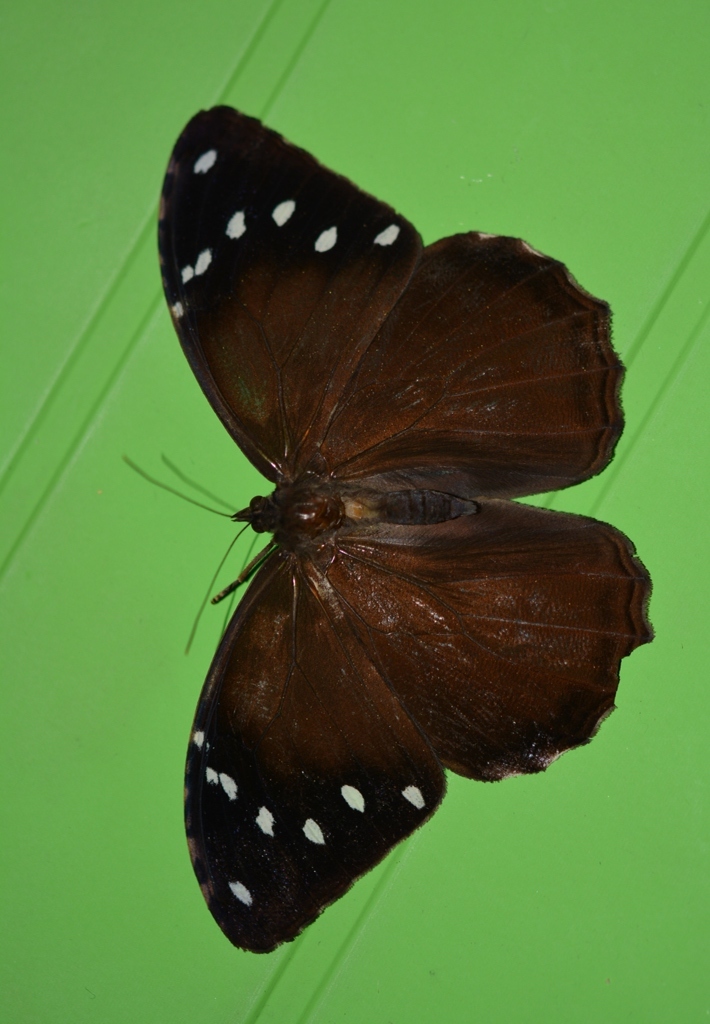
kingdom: Animalia
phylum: Arthropoda
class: Insecta
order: Lepidoptera
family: Nymphalidae
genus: Manataria
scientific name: Manataria maculata
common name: White-spotted satyr
